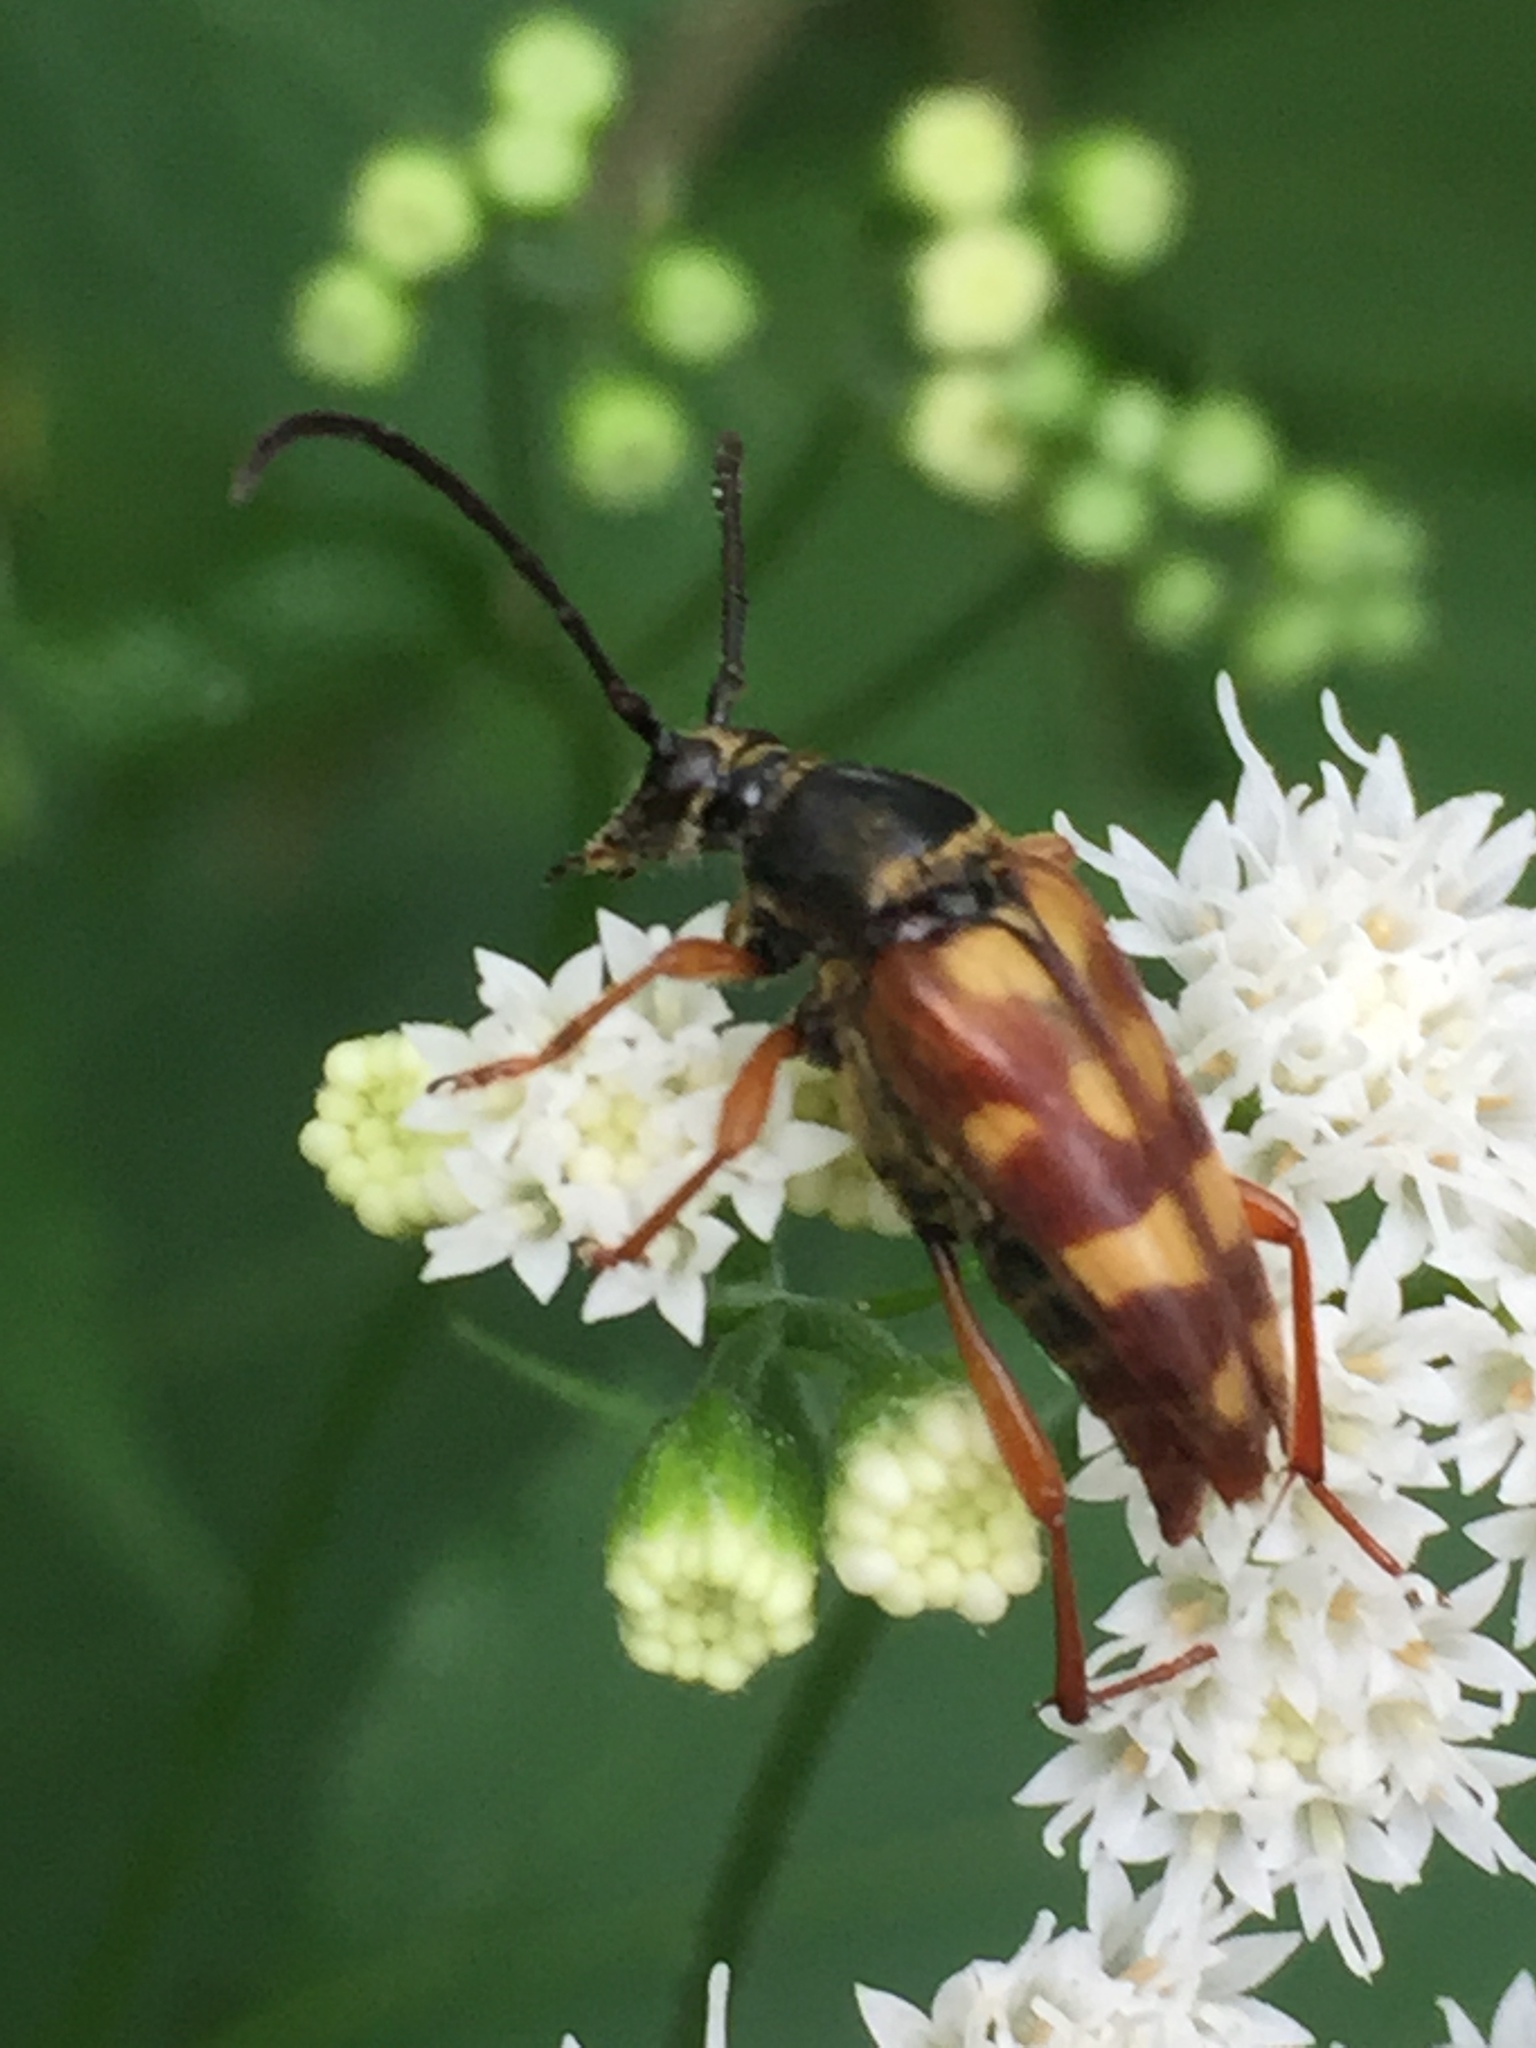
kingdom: Animalia
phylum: Arthropoda
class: Insecta
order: Coleoptera
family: Cerambycidae
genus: Typocerus
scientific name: Typocerus velutinus
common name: Banded longhorn beetle
